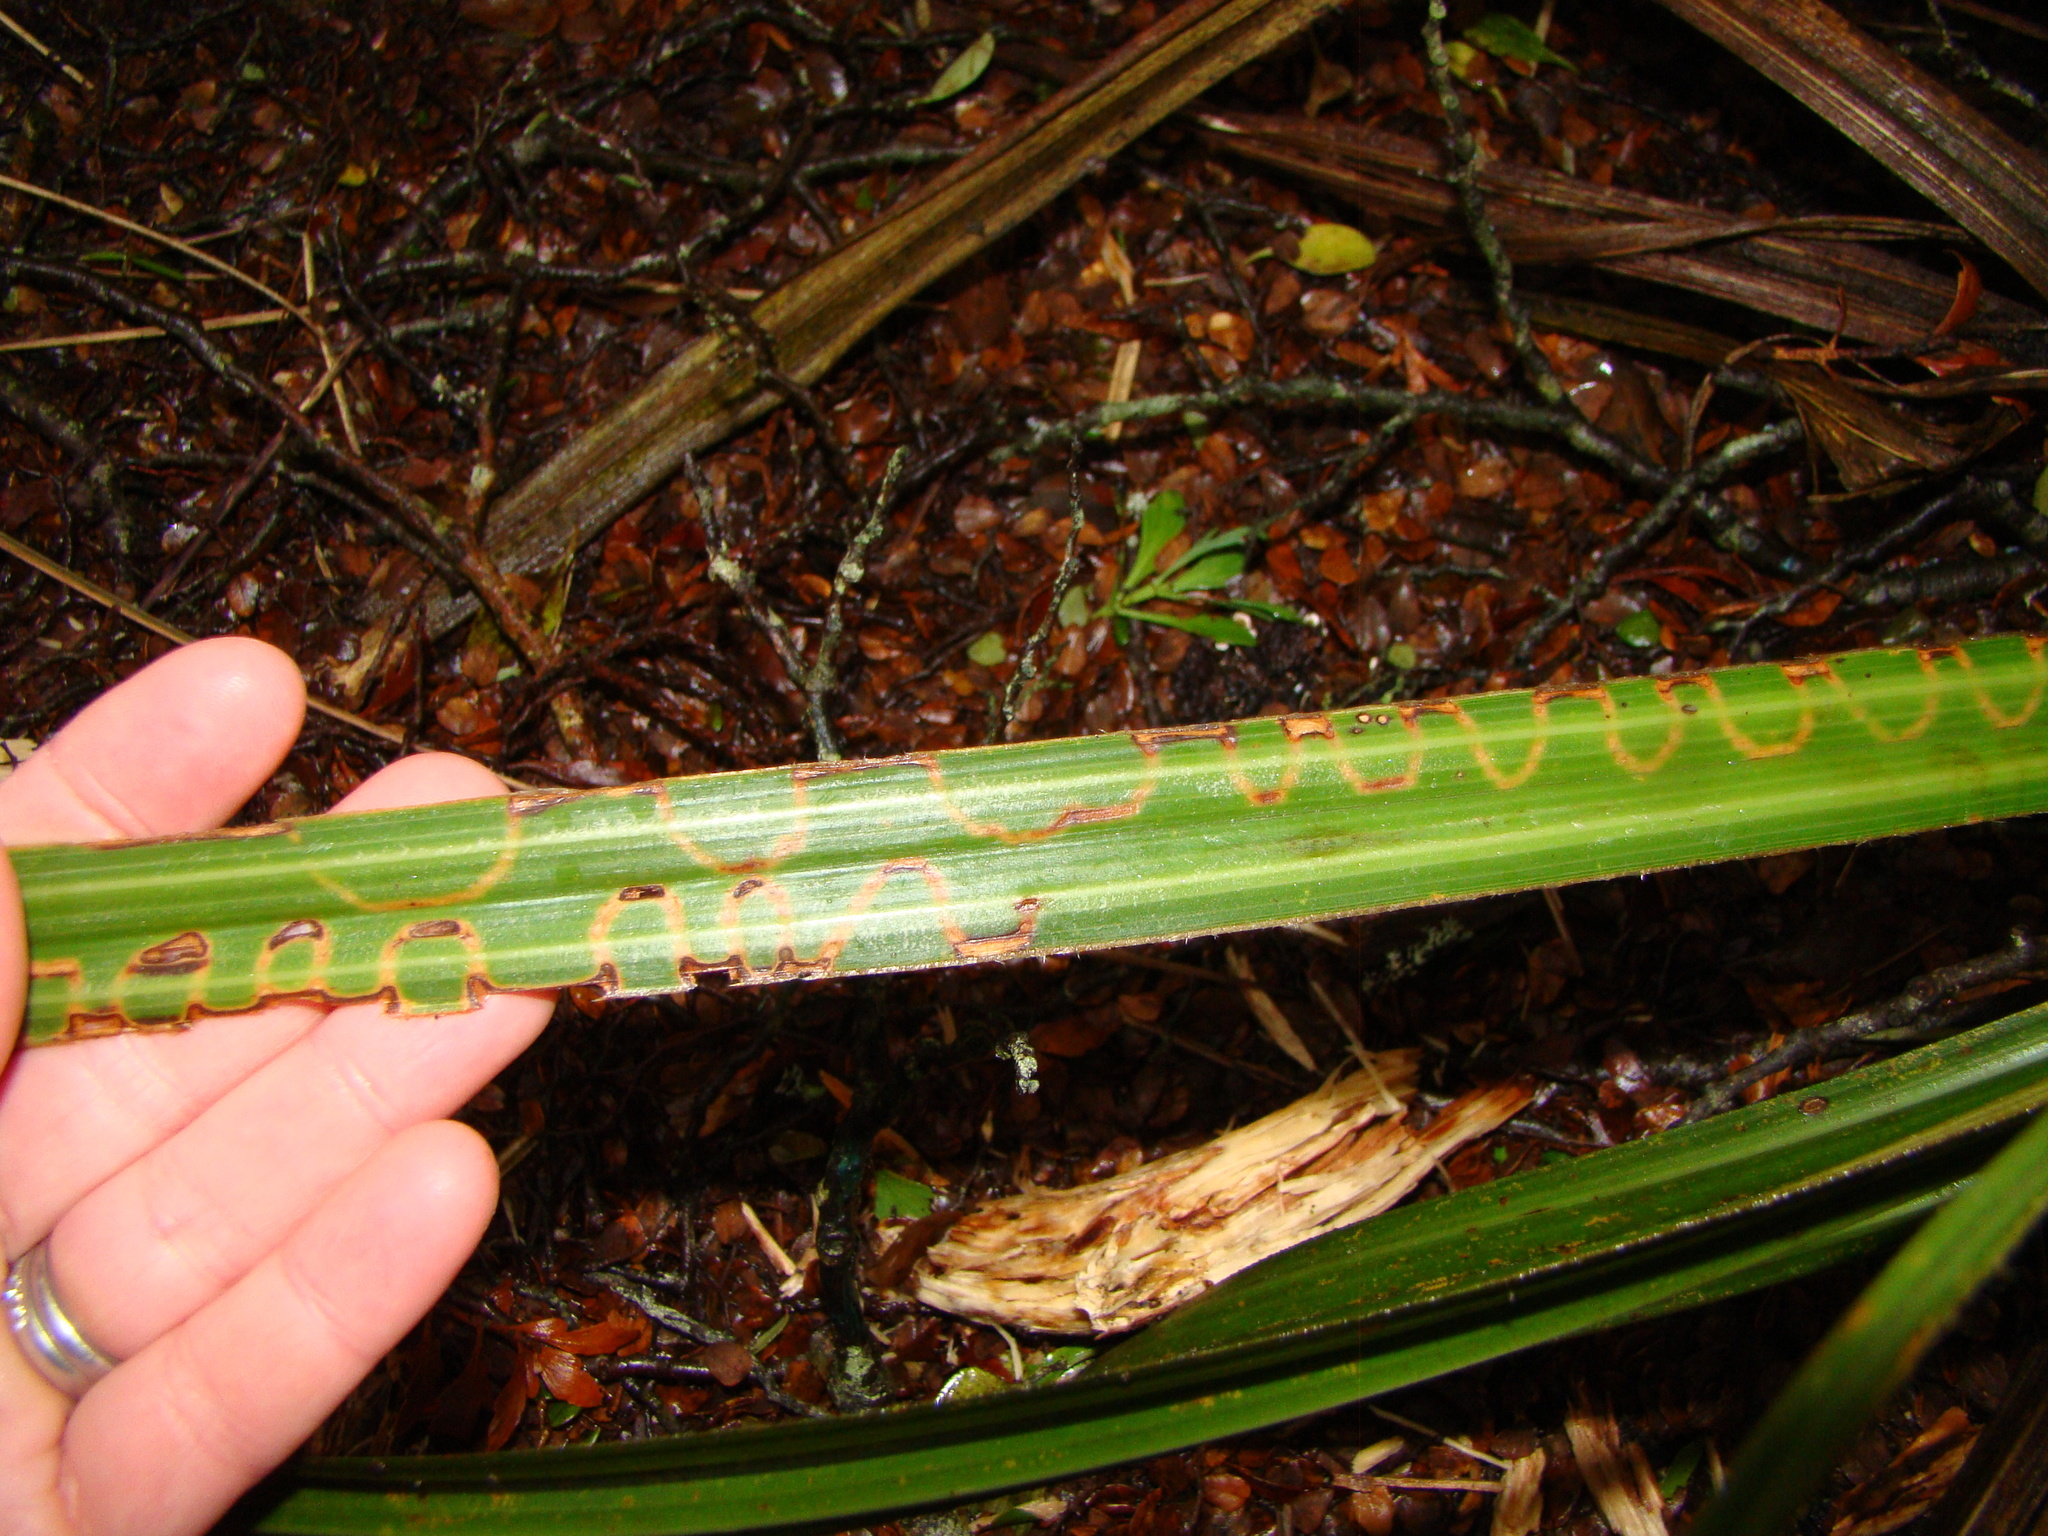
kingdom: Animalia
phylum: Arthropoda
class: Insecta
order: Lepidoptera
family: Plutellidae
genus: Charixena
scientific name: Charixena iridoxa
